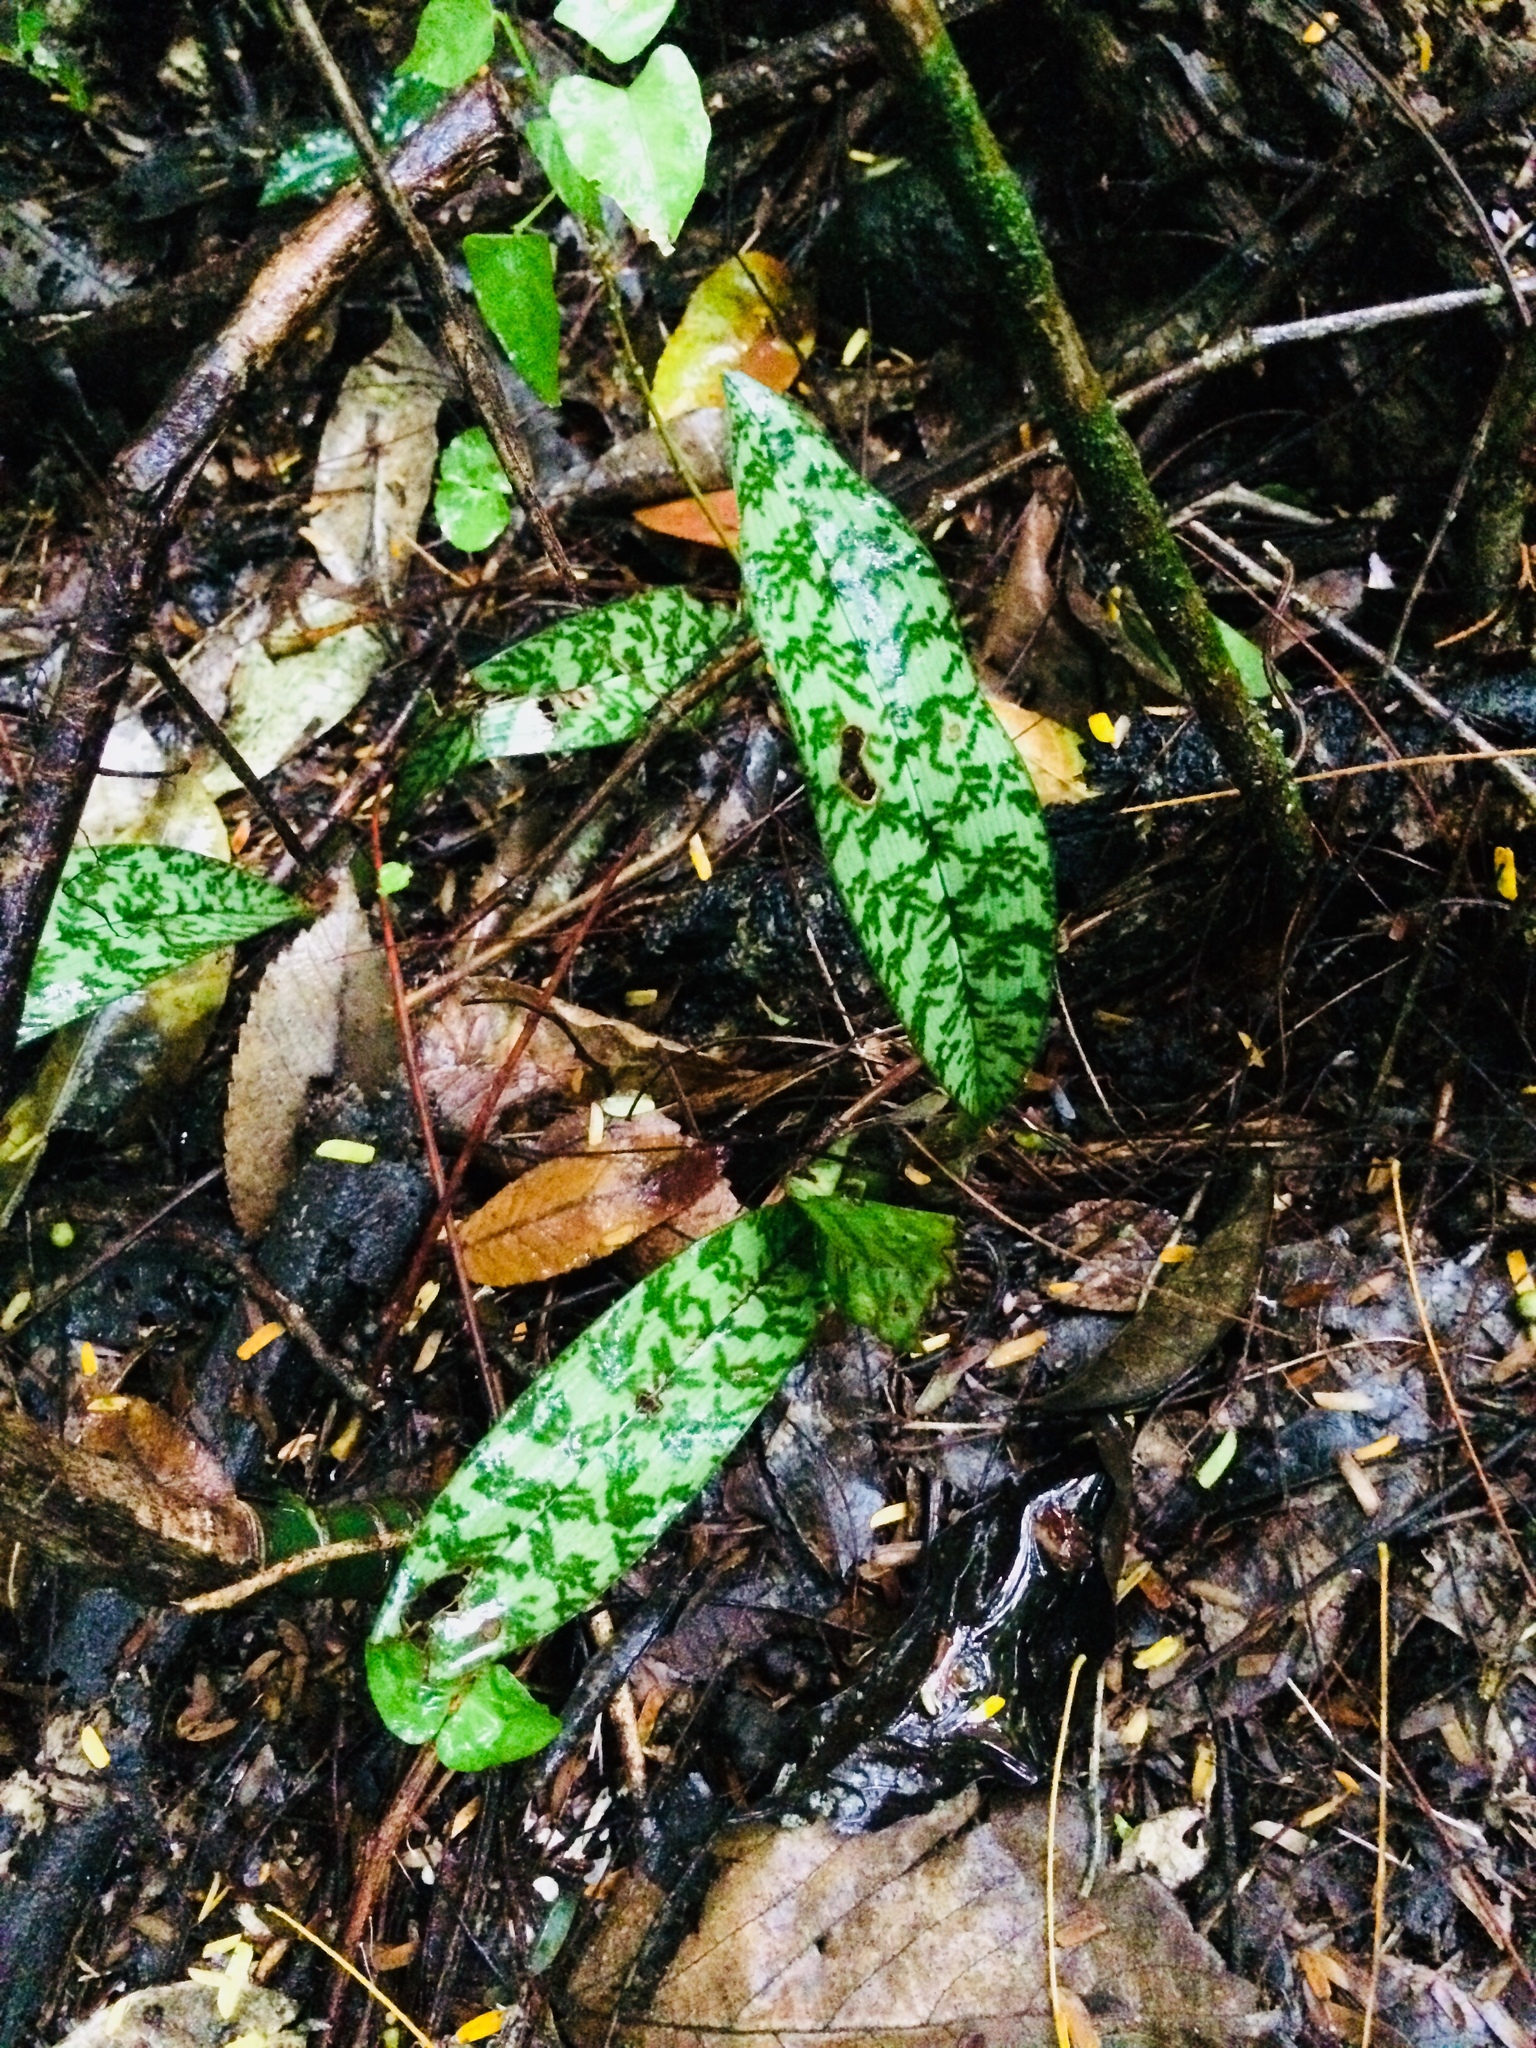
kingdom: Plantae
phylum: Tracheophyta
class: Liliopsida
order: Asparagales
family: Orchidaceae
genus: Eulophia
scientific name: Eulophia maculata
